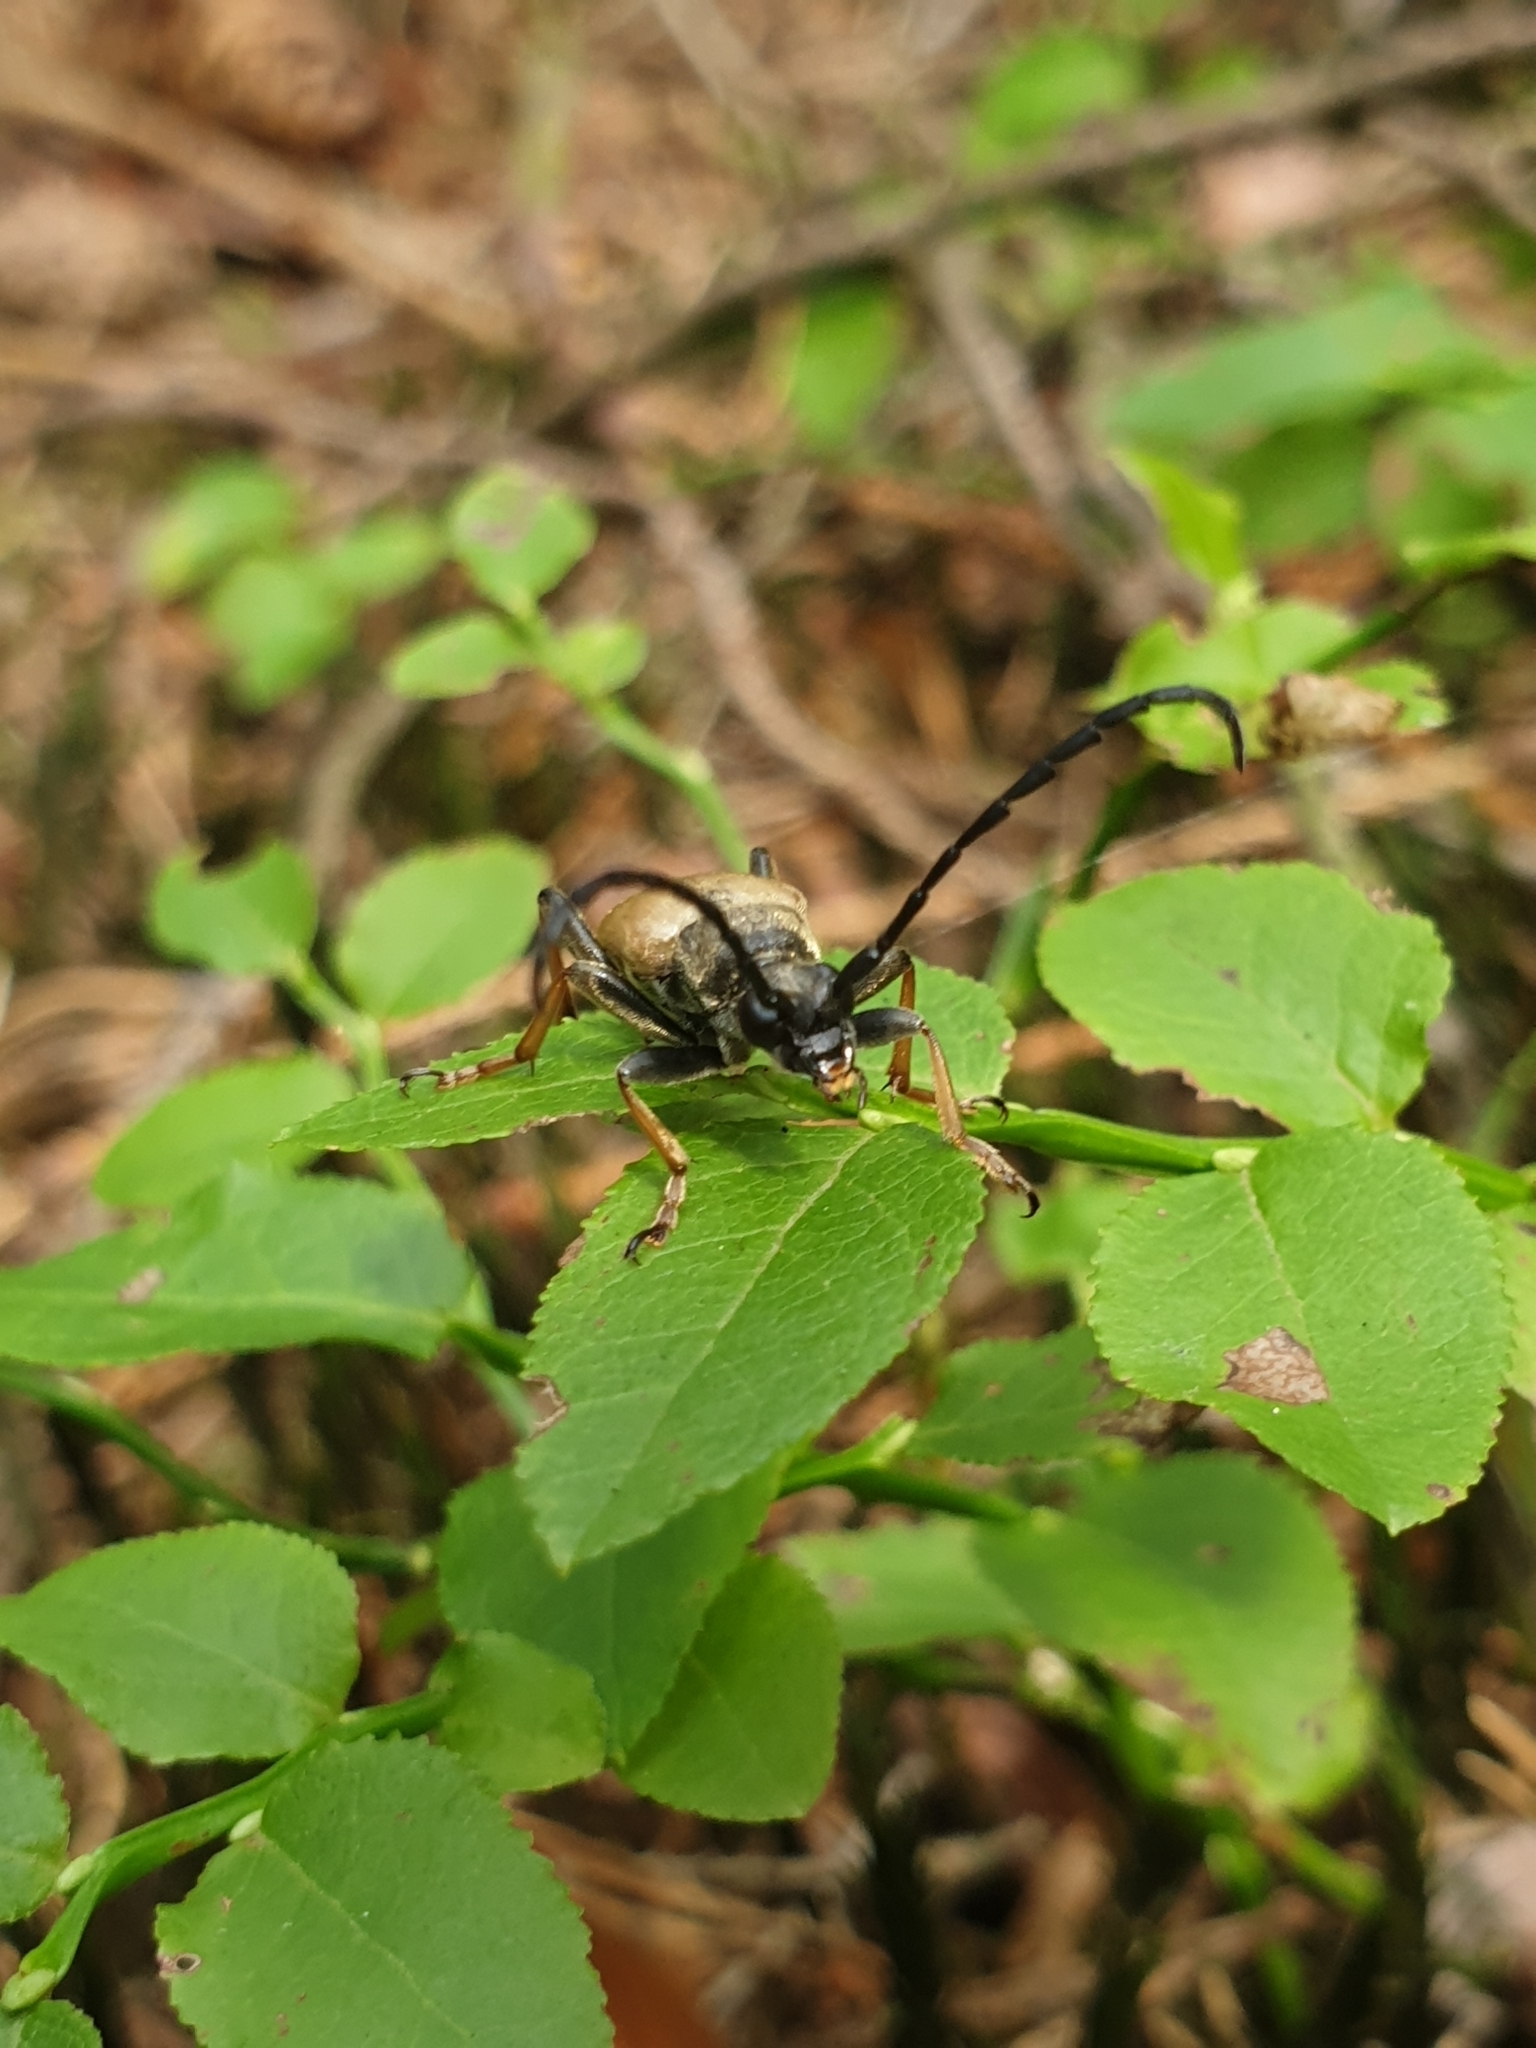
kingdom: Animalia
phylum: Arthropoda
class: Insecta
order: Coleoptera
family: Cerambycidae
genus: Stictoleptura
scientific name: Stictoleptura rubra
